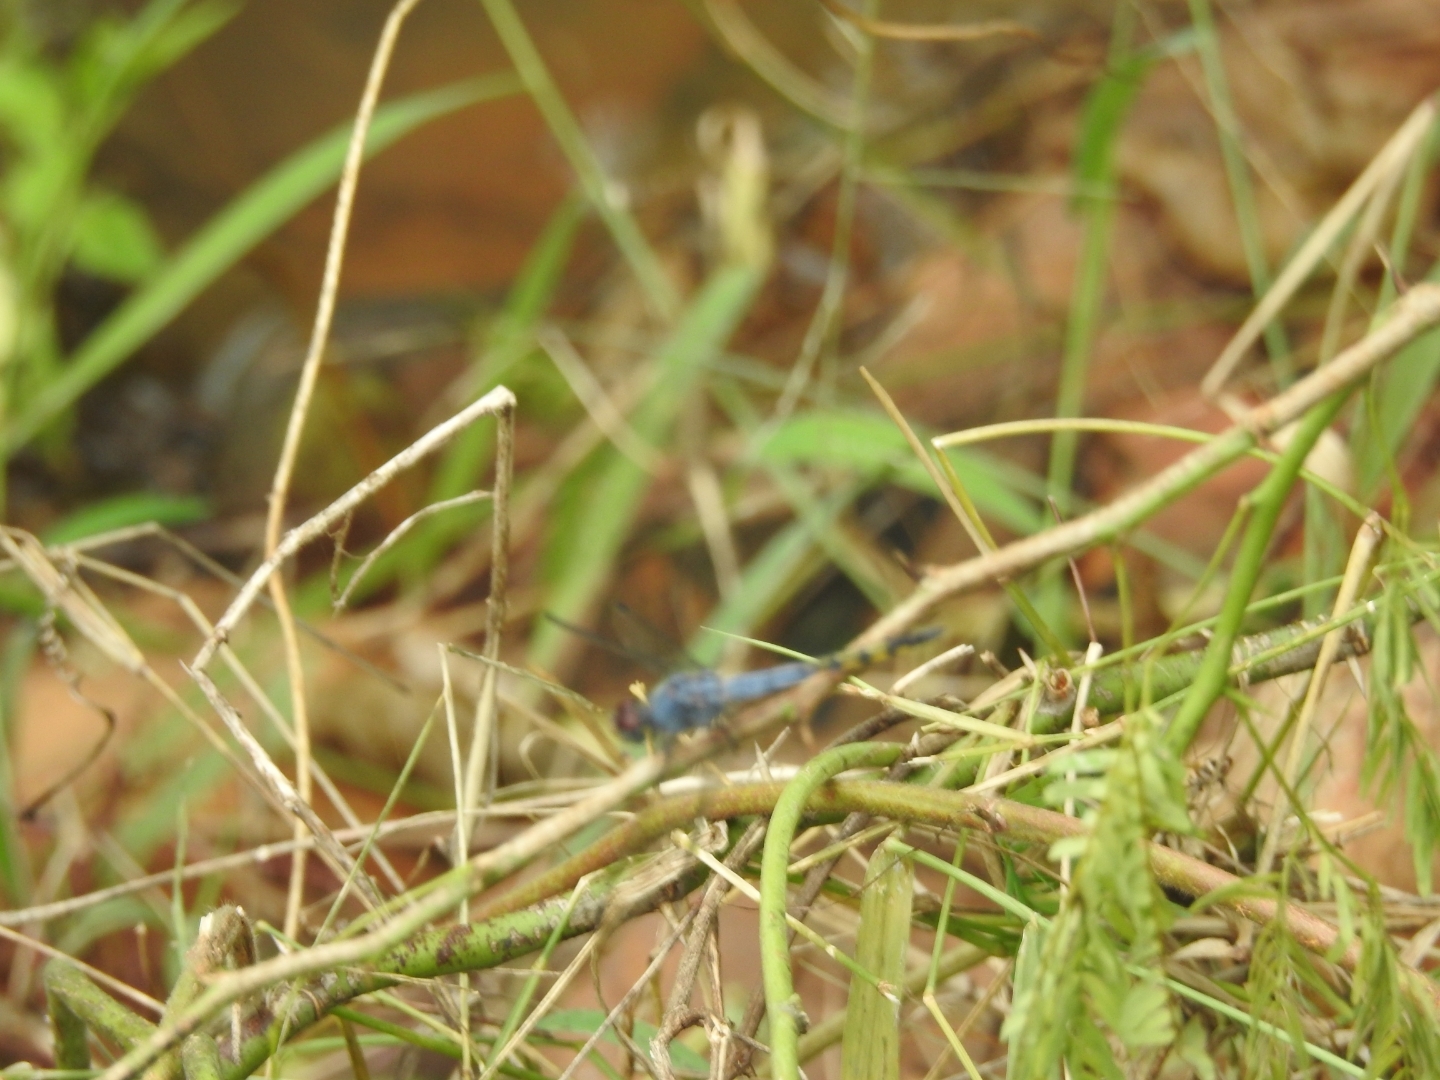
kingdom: Animalia
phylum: Arthropoda
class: Insecta
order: Odonata
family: Libellulidae
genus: Potamarcha
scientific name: Potamarcha congener
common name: Blue chaser
